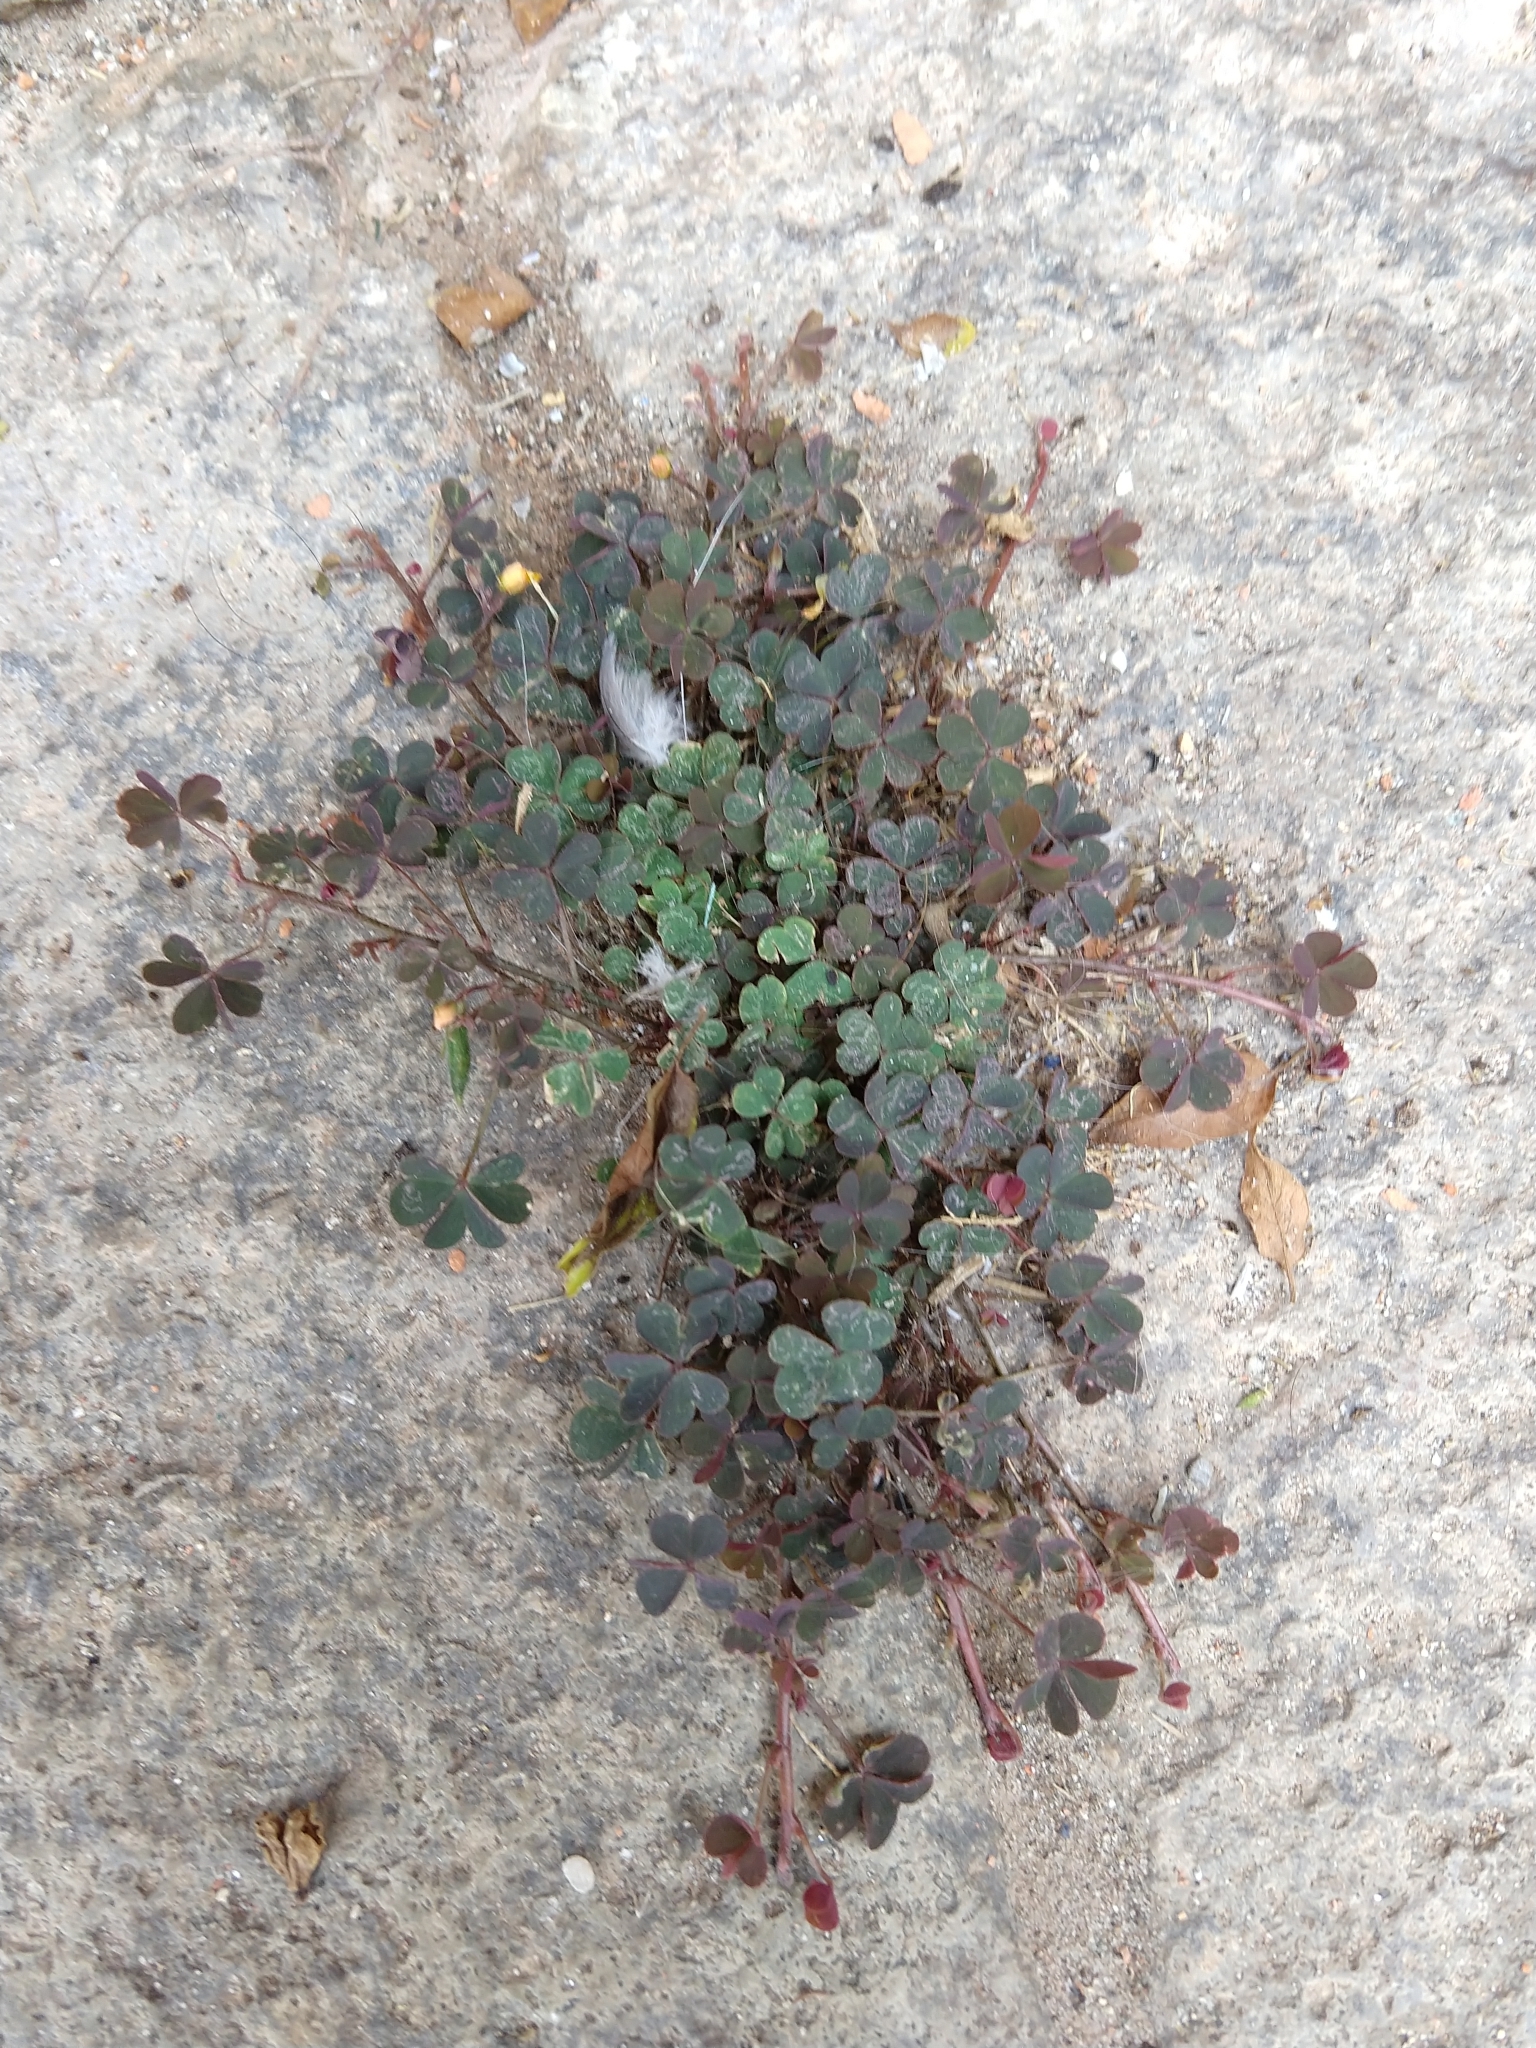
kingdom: Plantae
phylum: Tracheophyta
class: Magnoliopsida
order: Oxalidales
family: Oxalidaceae
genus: Oxalis
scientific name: Oxalis corniculata
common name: Procumbent yellow-sorrel
